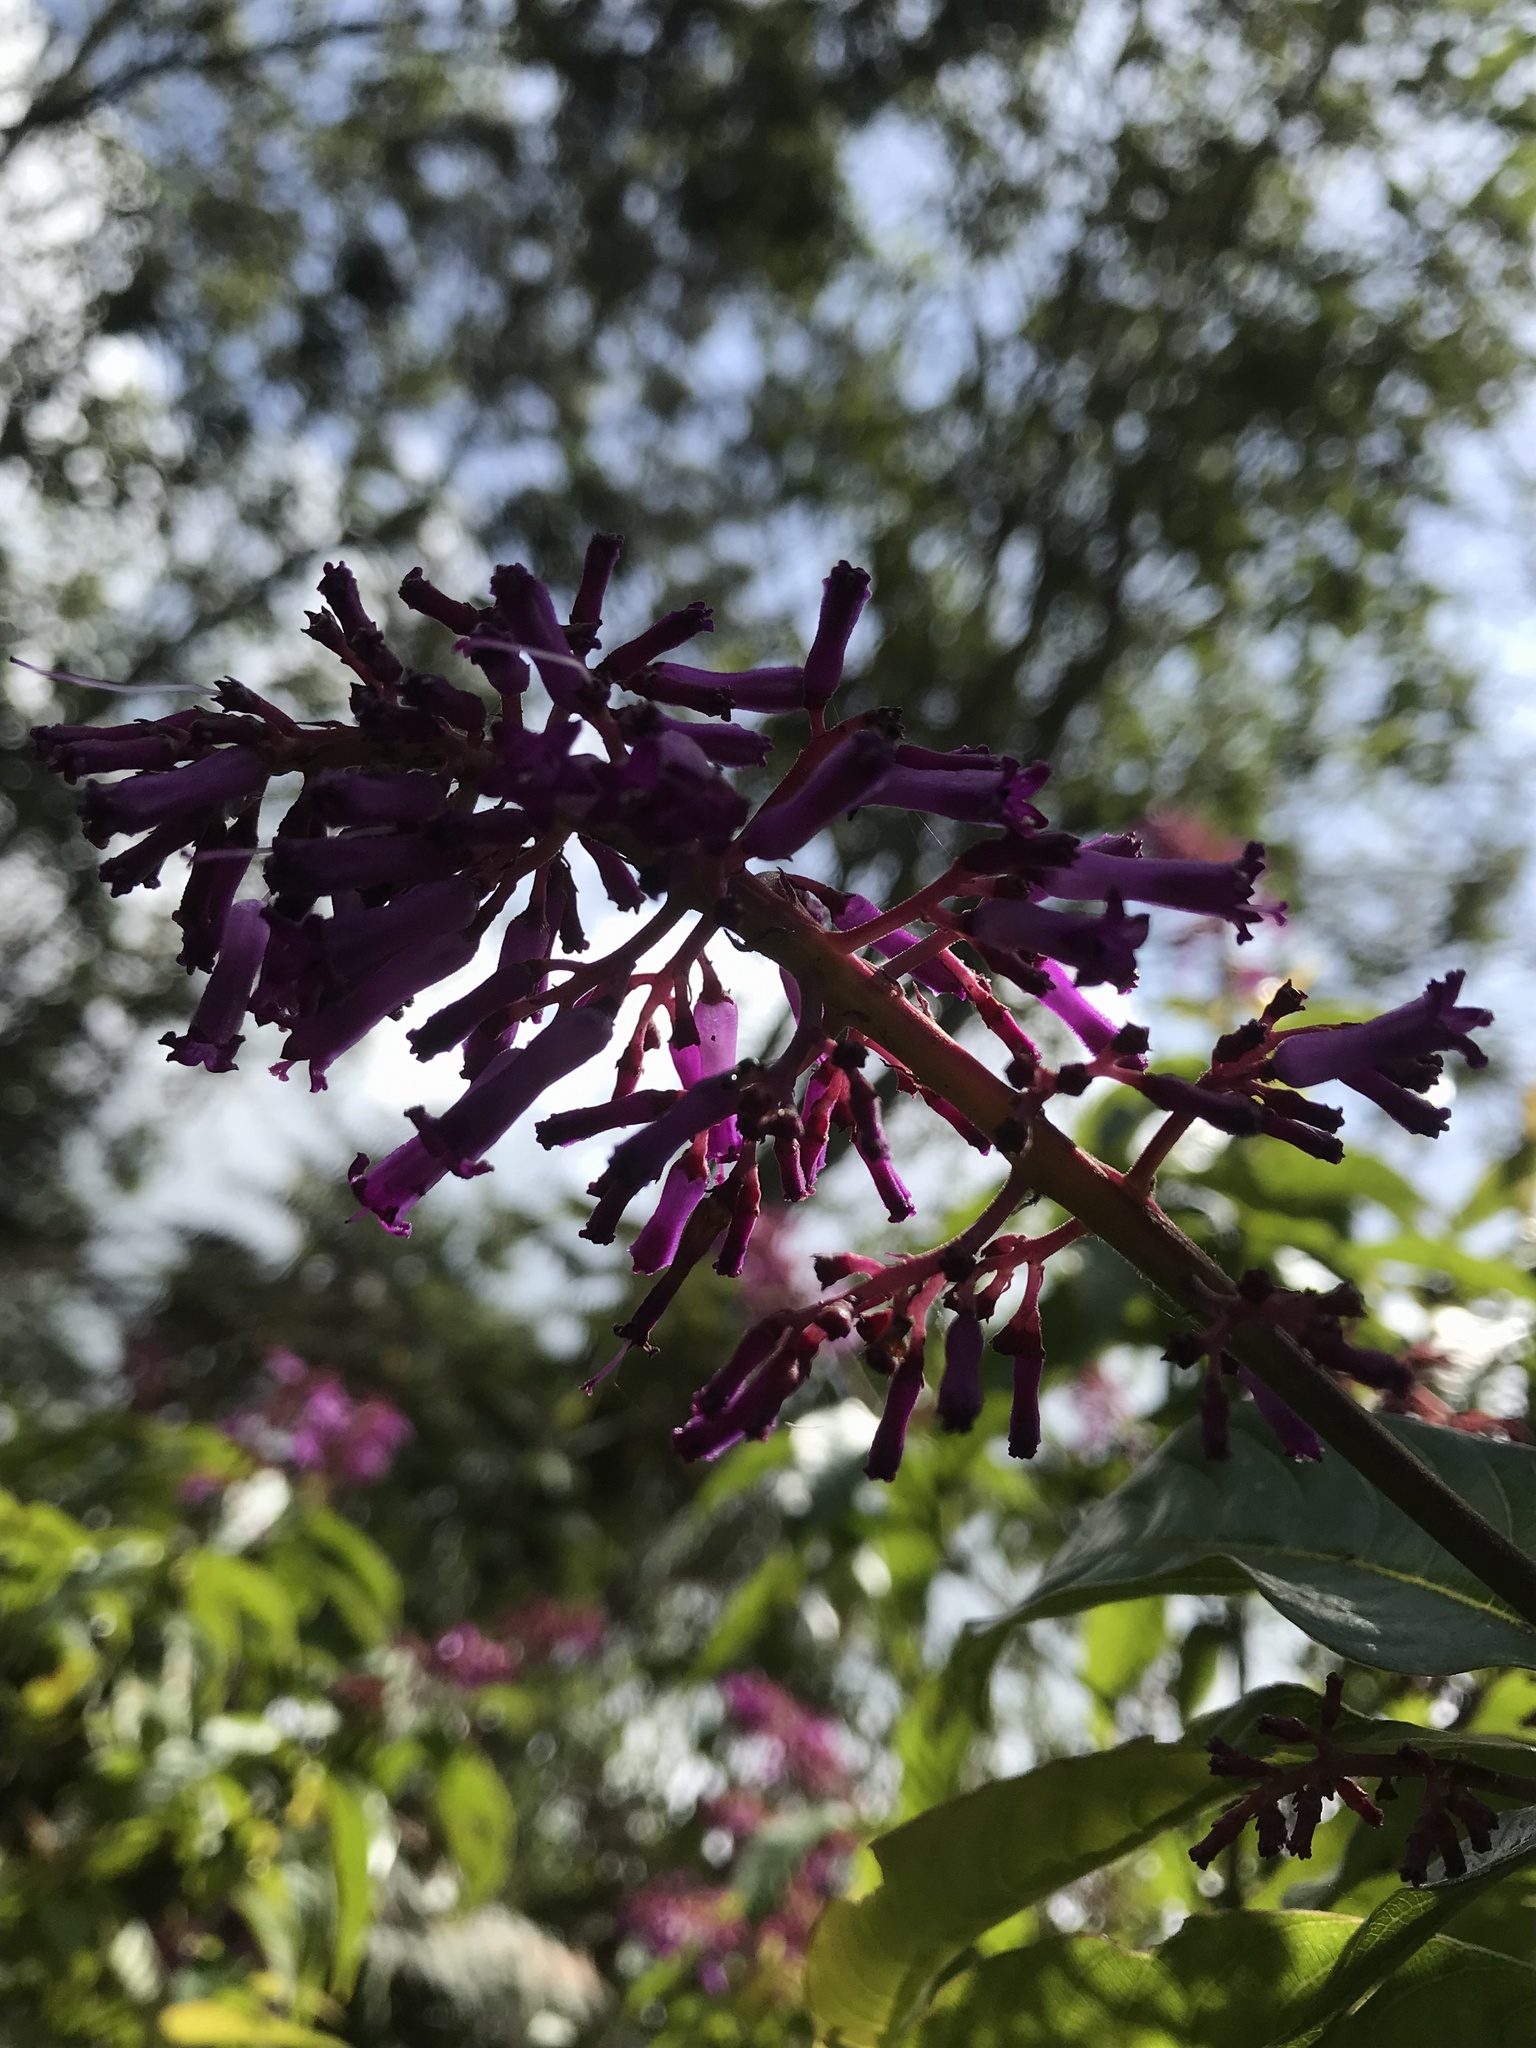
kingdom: Plantae
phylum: Tracheophyta
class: Magnoliopsida
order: Gentianales
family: Rubiaceae
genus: Palicourea
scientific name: Palicourea angustifolia
